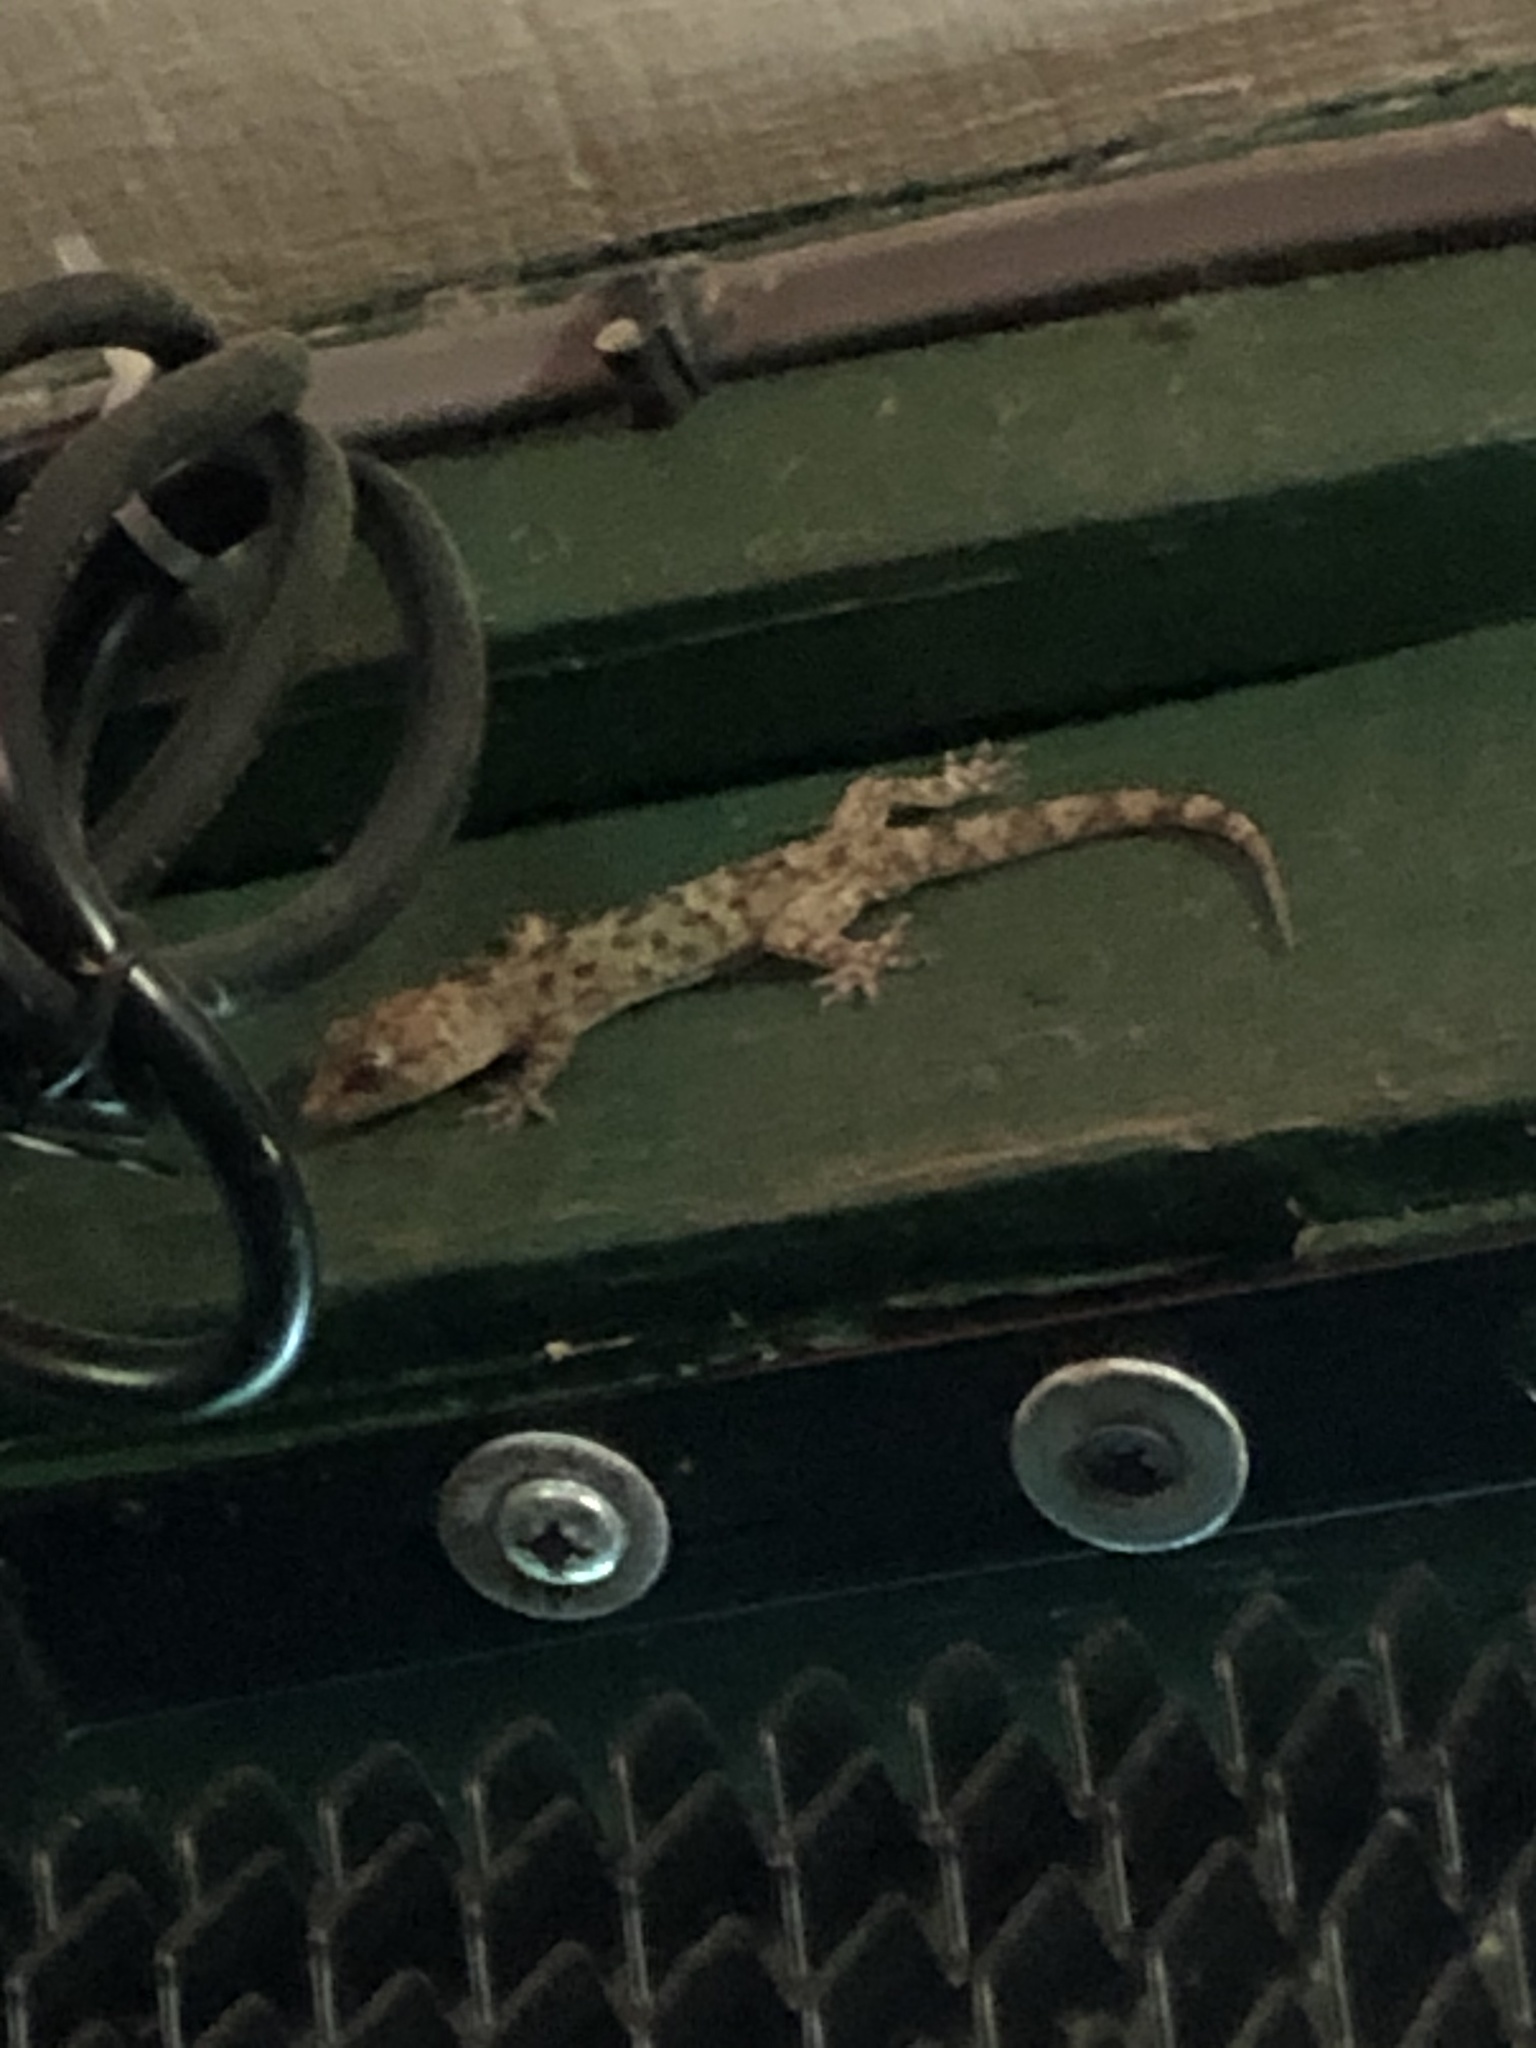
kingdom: Animalia
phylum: Chordata
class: Squamata
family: Gekkonidae
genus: Hemidactylus
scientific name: Hemidactylus turcicus
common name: Turkish gecko
